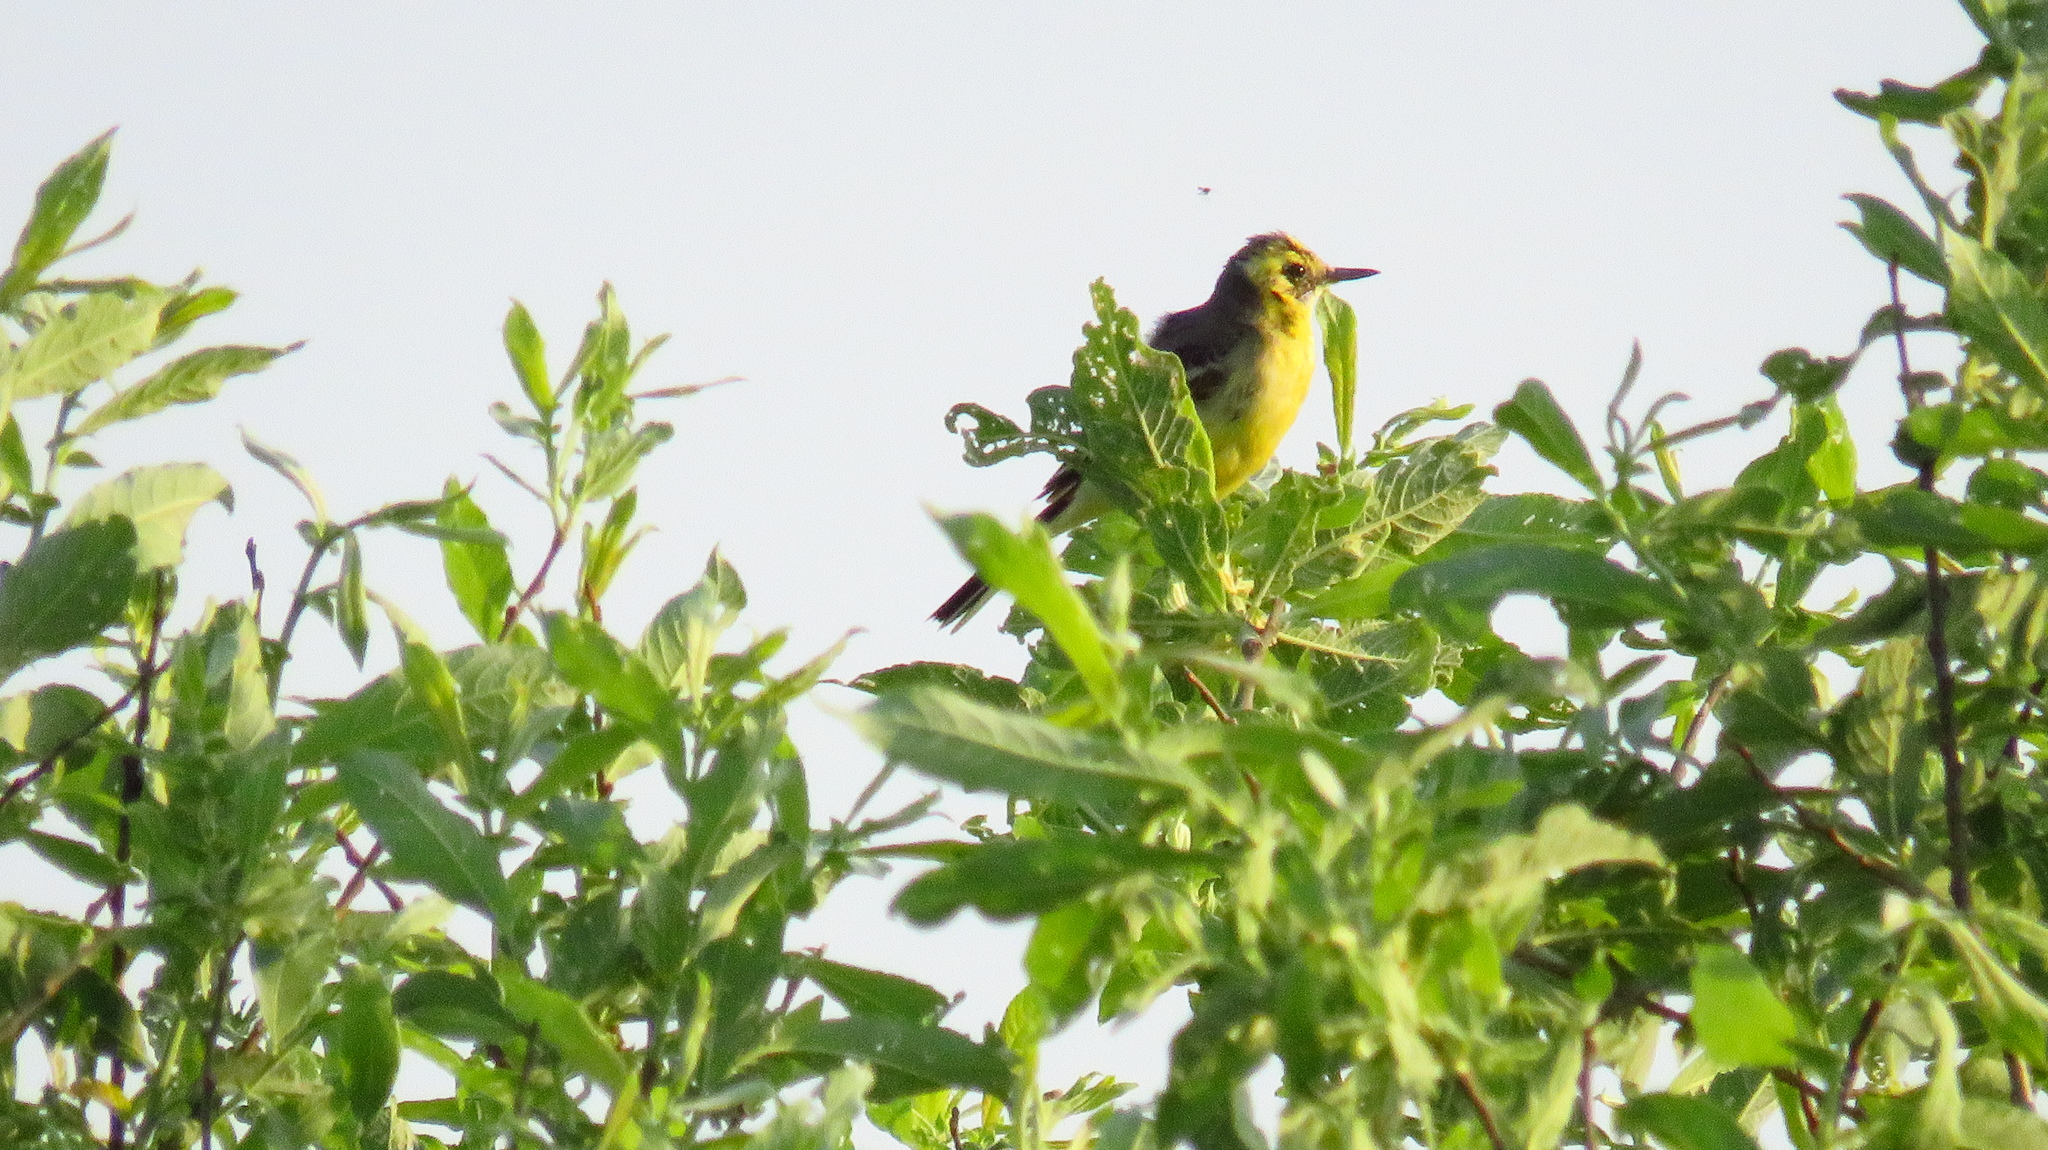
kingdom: Animalia
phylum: Chordata
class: Aves
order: Passeriformes
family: Motacillidae
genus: Motacilla
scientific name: Motacilla citreola
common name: Citrine wagtail
